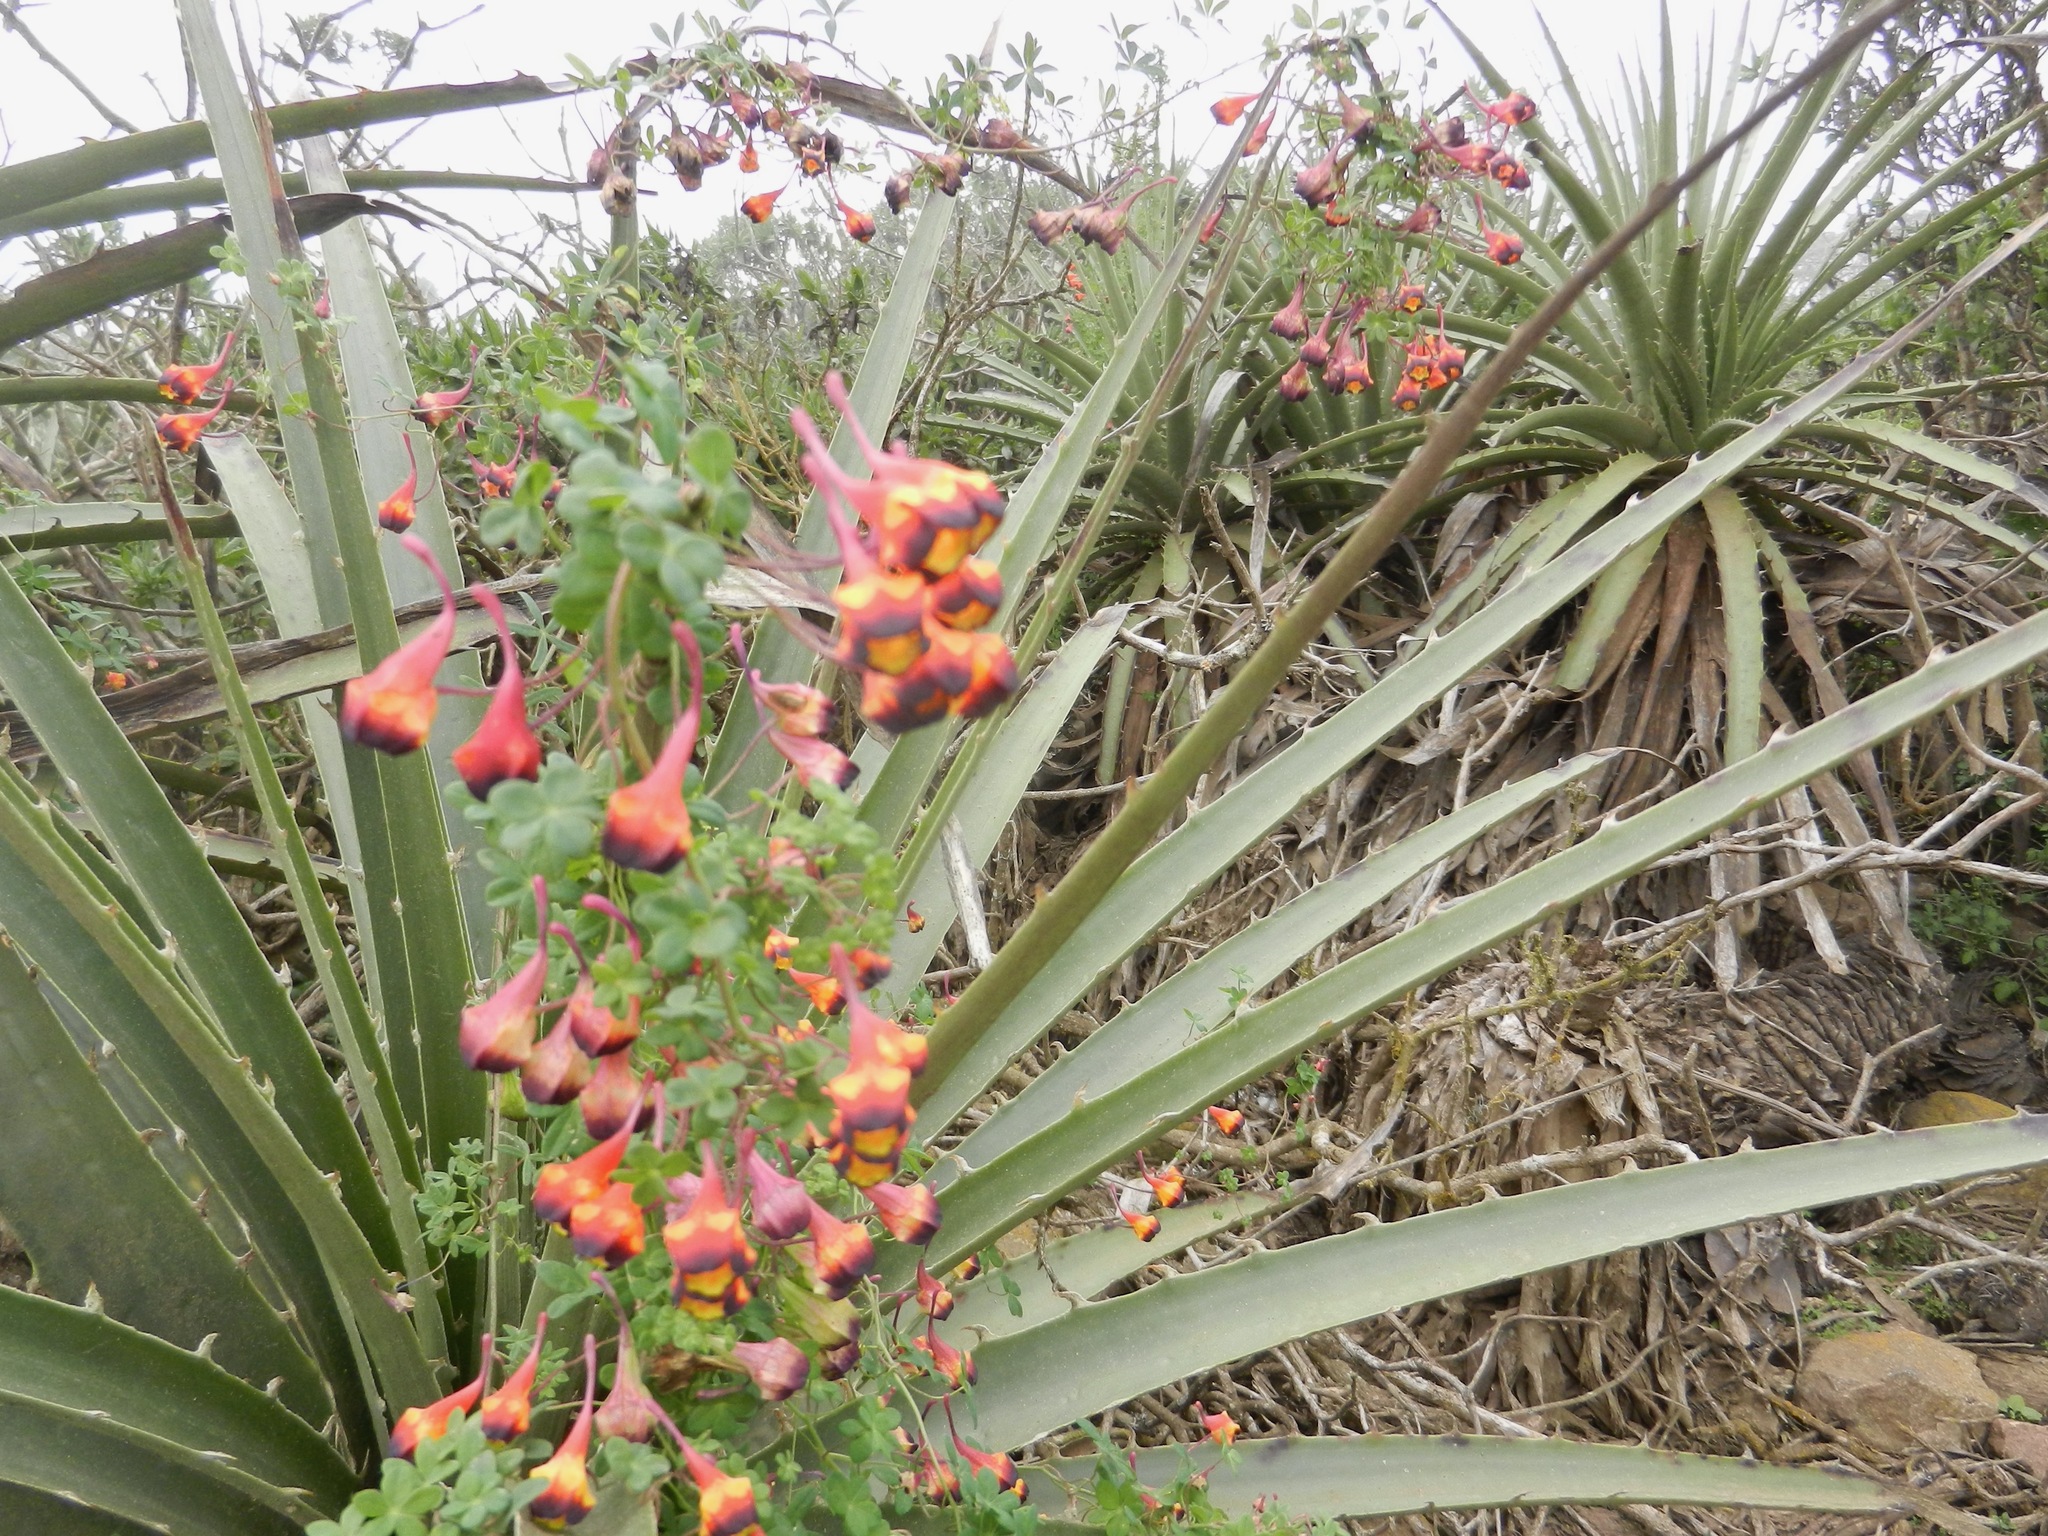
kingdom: Plantae
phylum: Tracheophyta
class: Magnoliopsida
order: Brassicales
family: Tropaeolaceae
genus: Tropaeolum
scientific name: Tropaeolum tricolor
